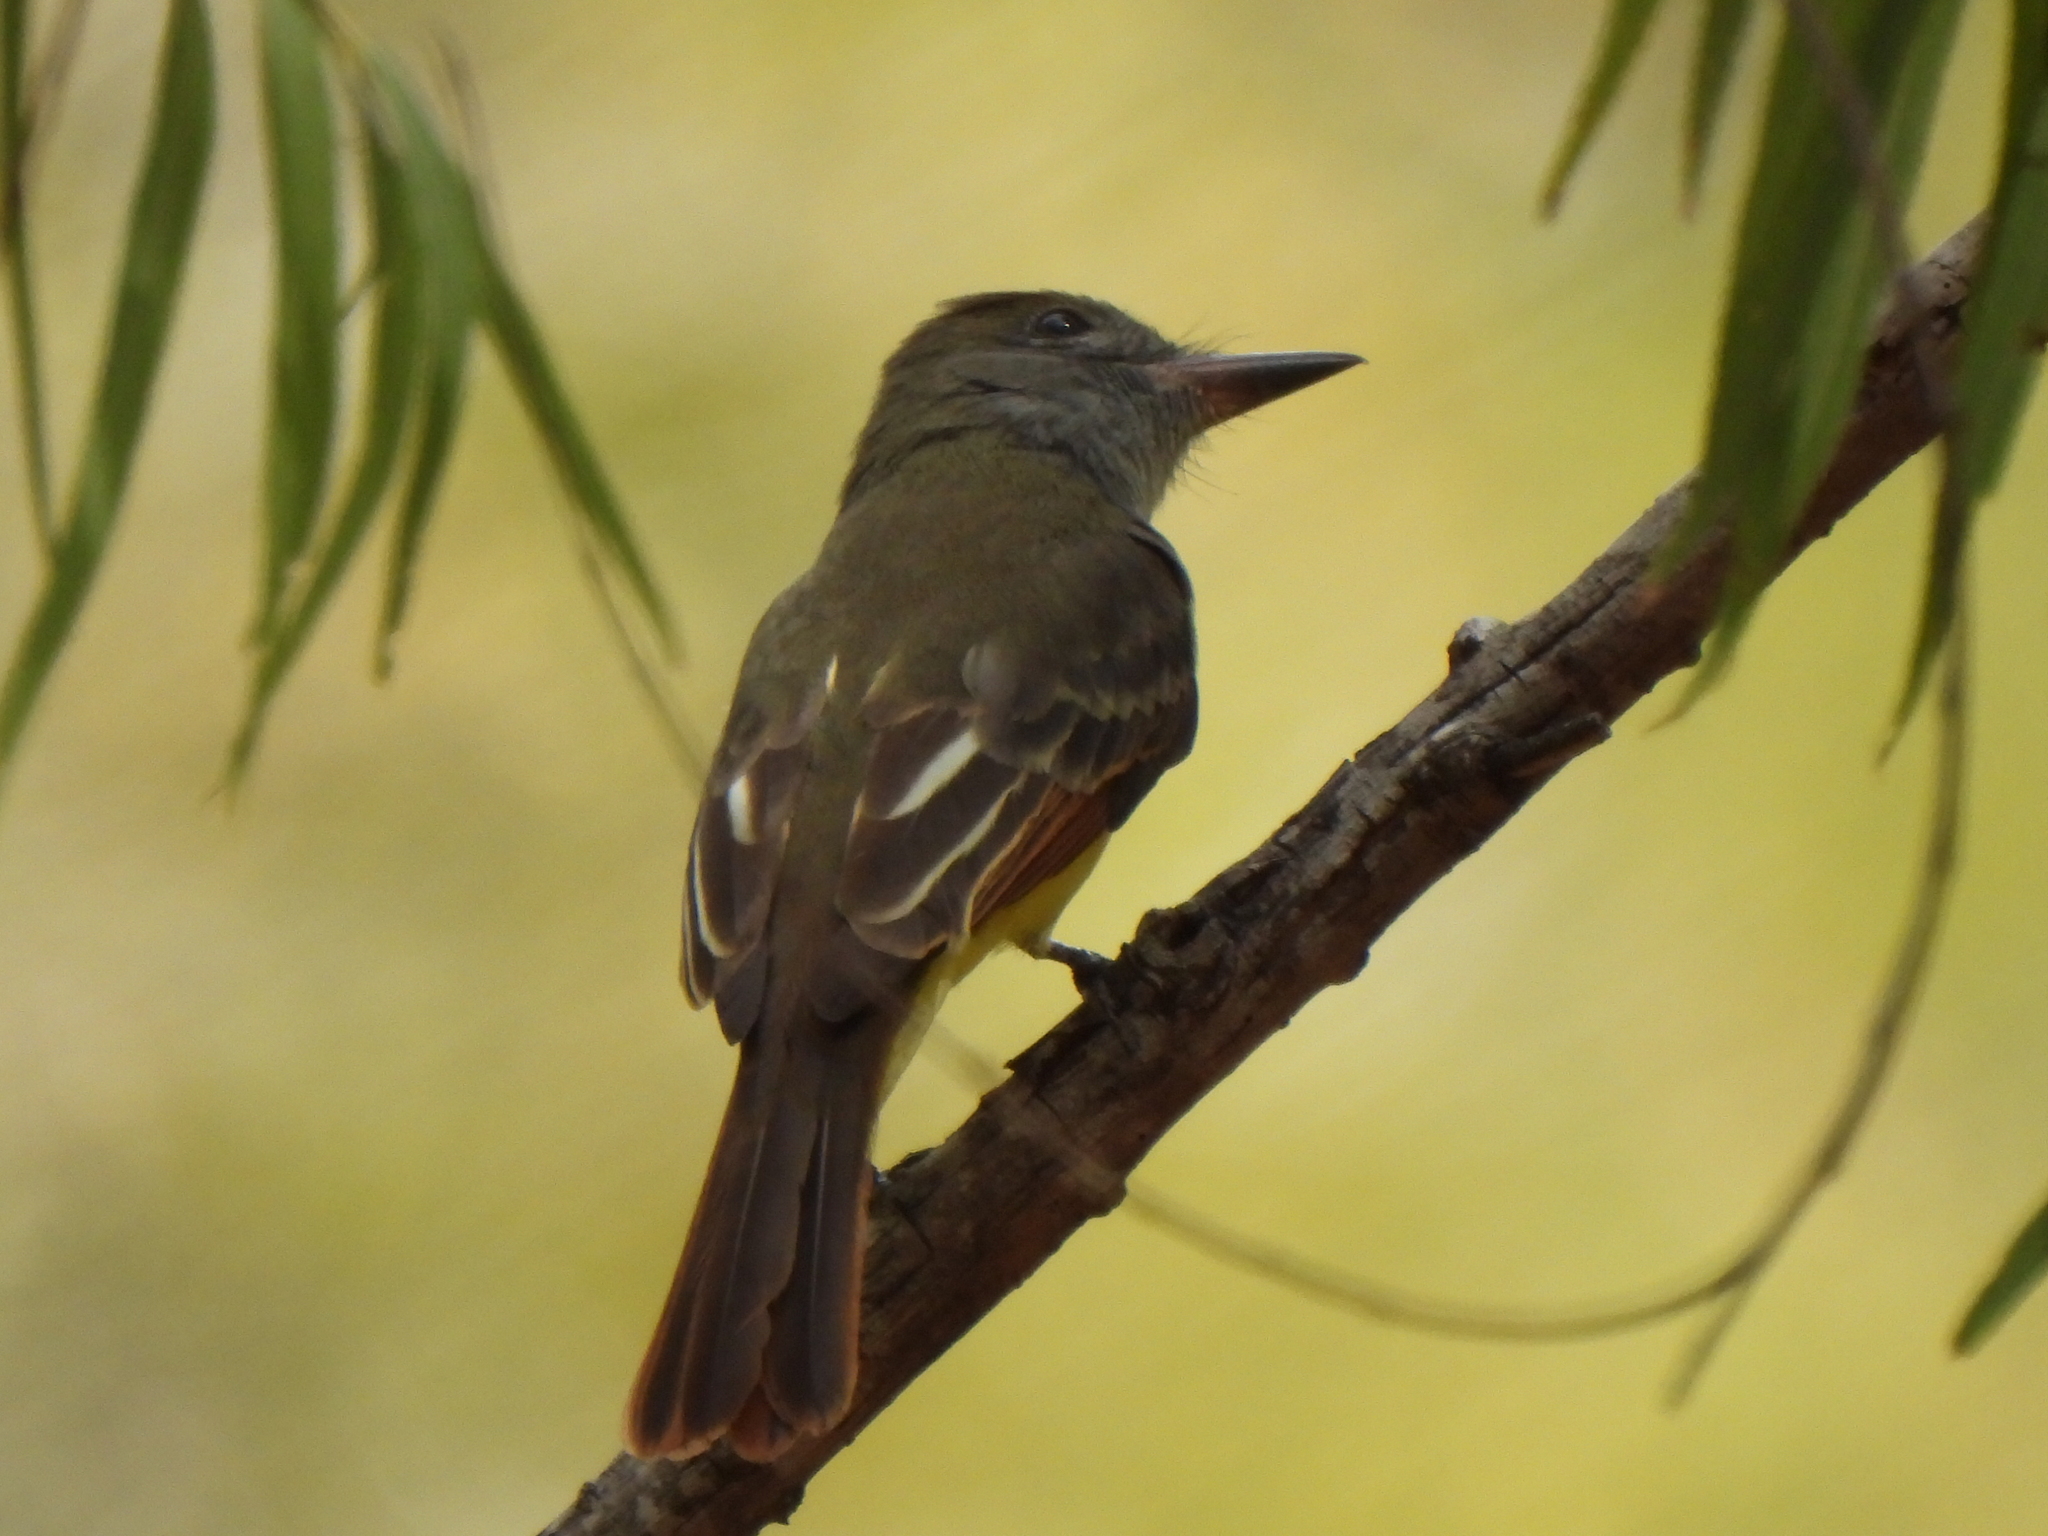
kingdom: Animalia
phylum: Chordata
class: Aves
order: Passeriformes
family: Tyrannidae
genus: Myiarchus
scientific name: Myiarchus crinitus
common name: Great crested flycatcher
